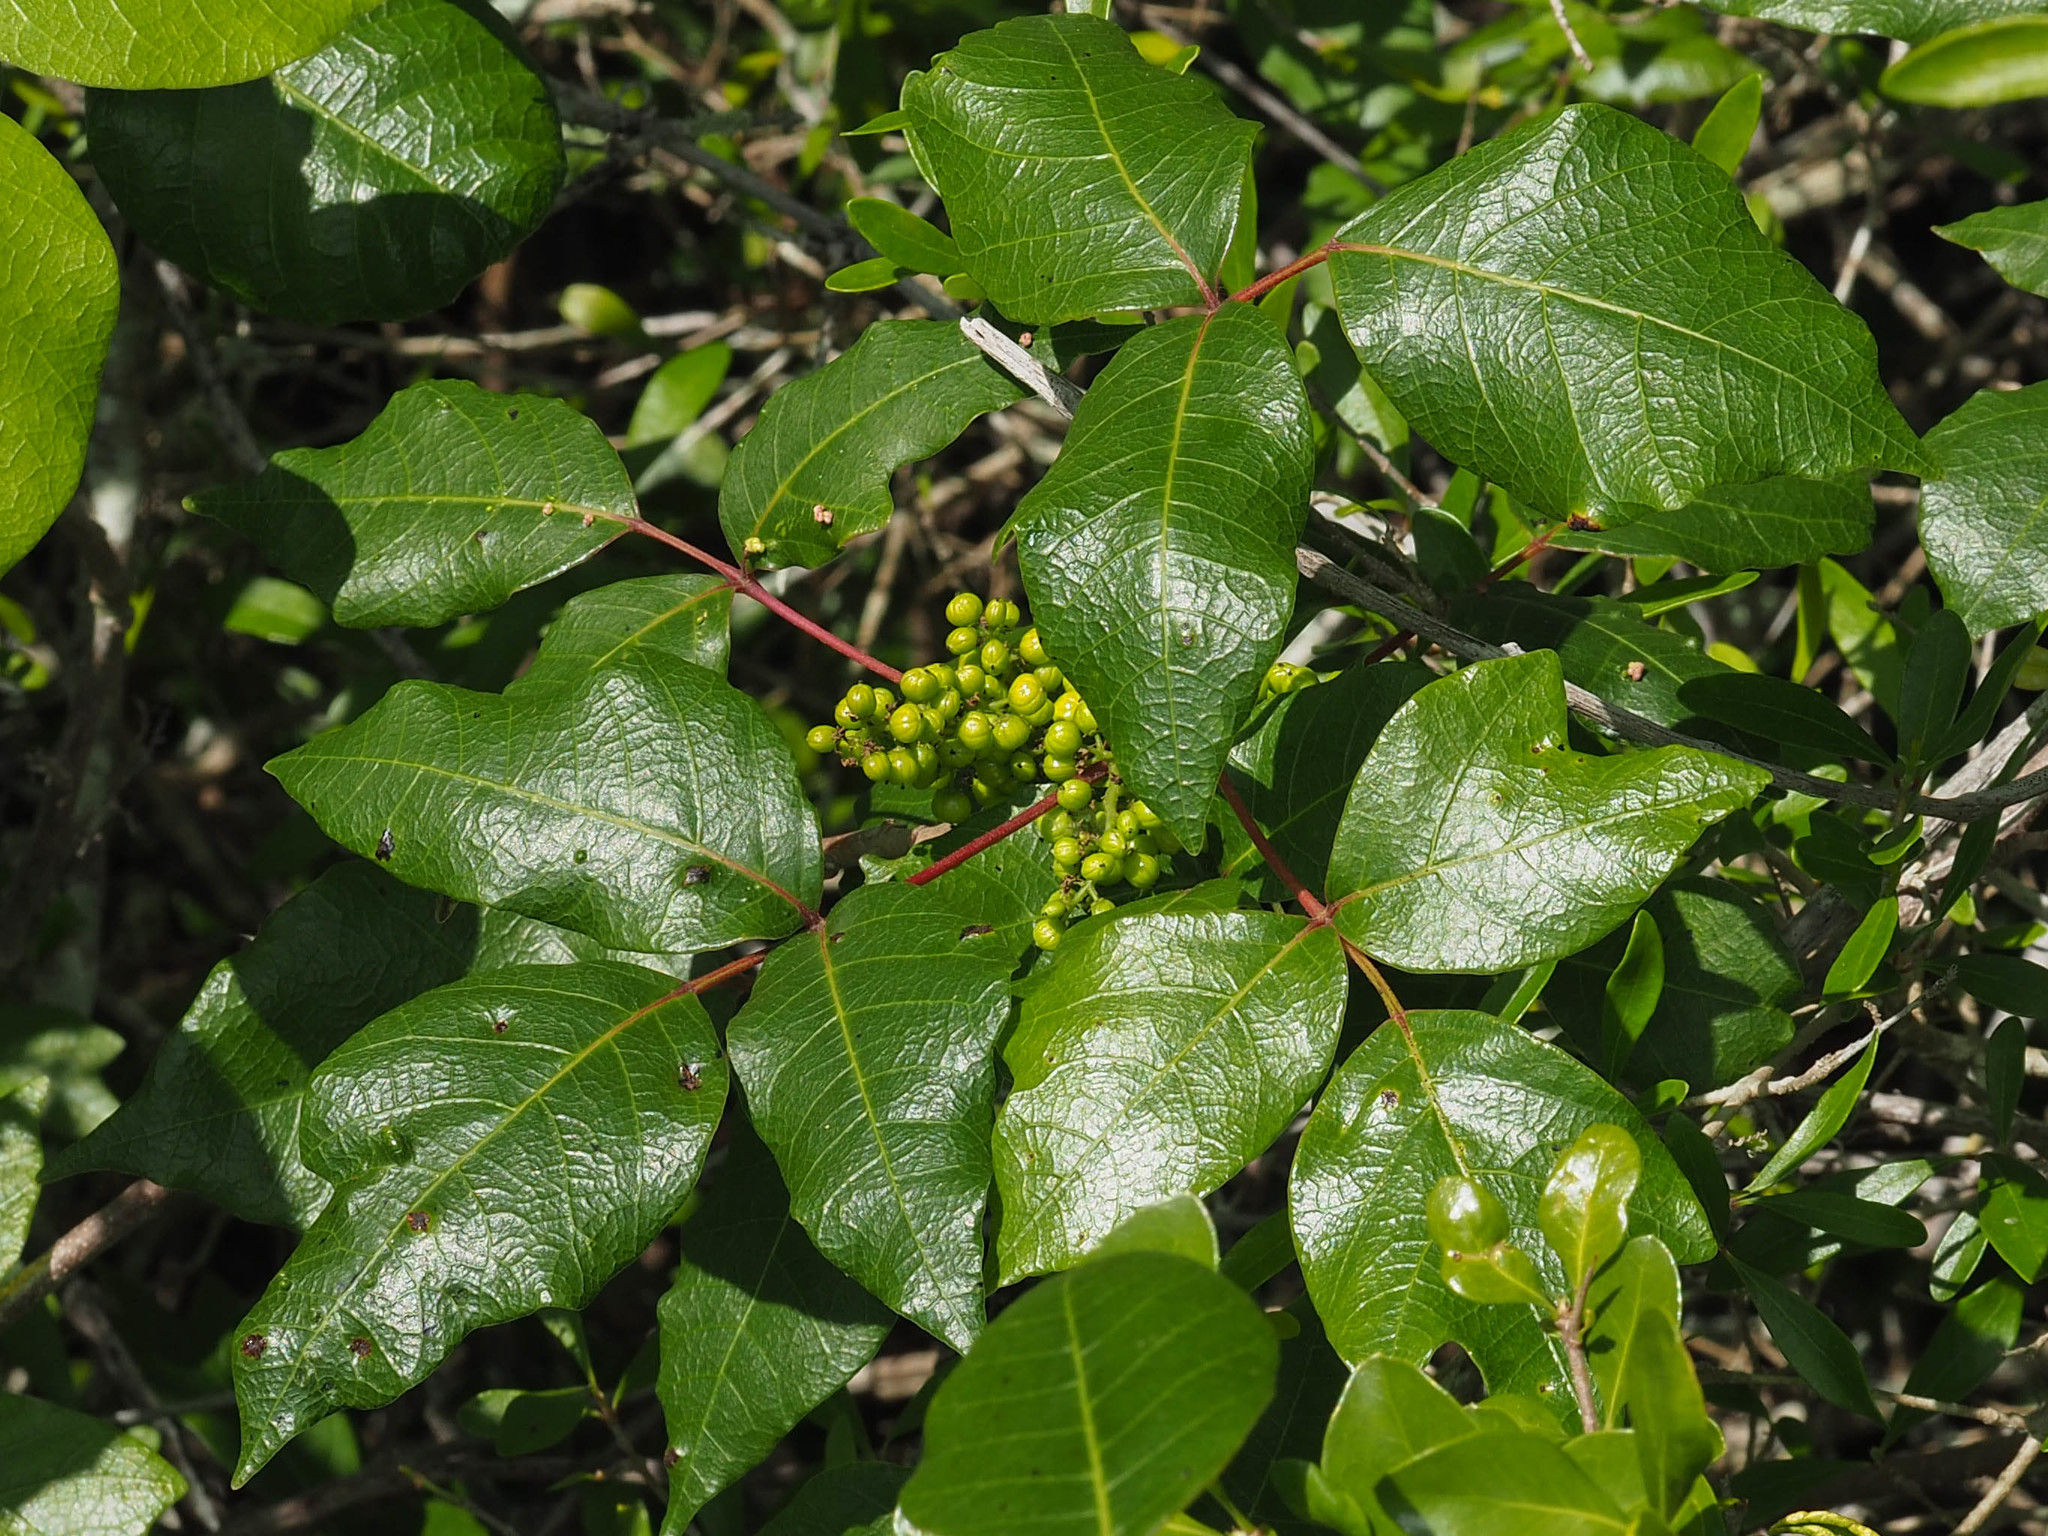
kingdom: Plantae
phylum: Tracheophyta
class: Magnoliopsida
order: Sapindales
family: Anacardiaceae
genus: Toxicodendron
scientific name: Toxicodendron radicans
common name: Poison ivy
